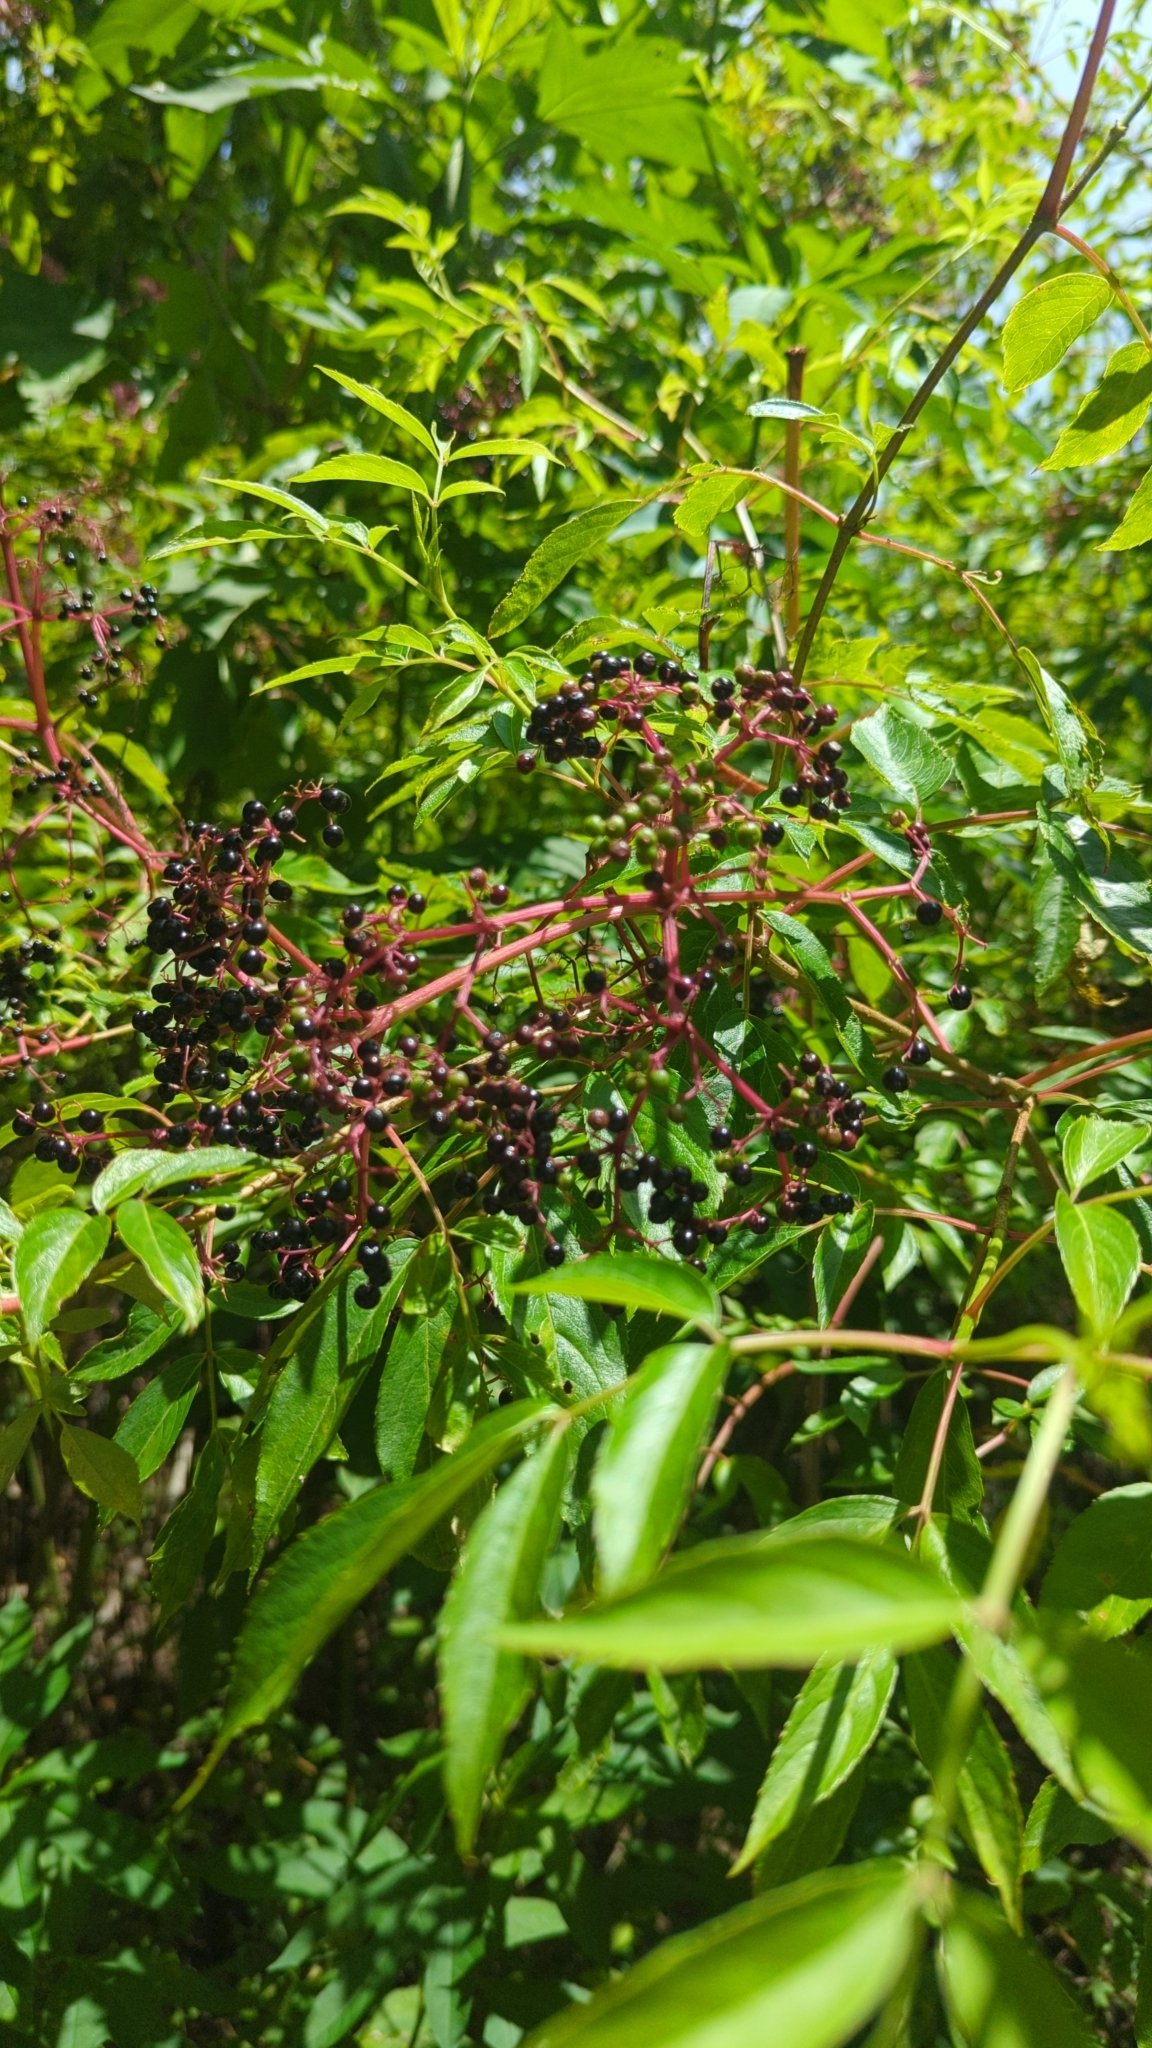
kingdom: Plantae
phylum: Tracheophyta
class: Magnoliopsida
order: Dipsacales
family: Viburnaceae
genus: Sambucus
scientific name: Sambucus canadensis
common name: American elder
